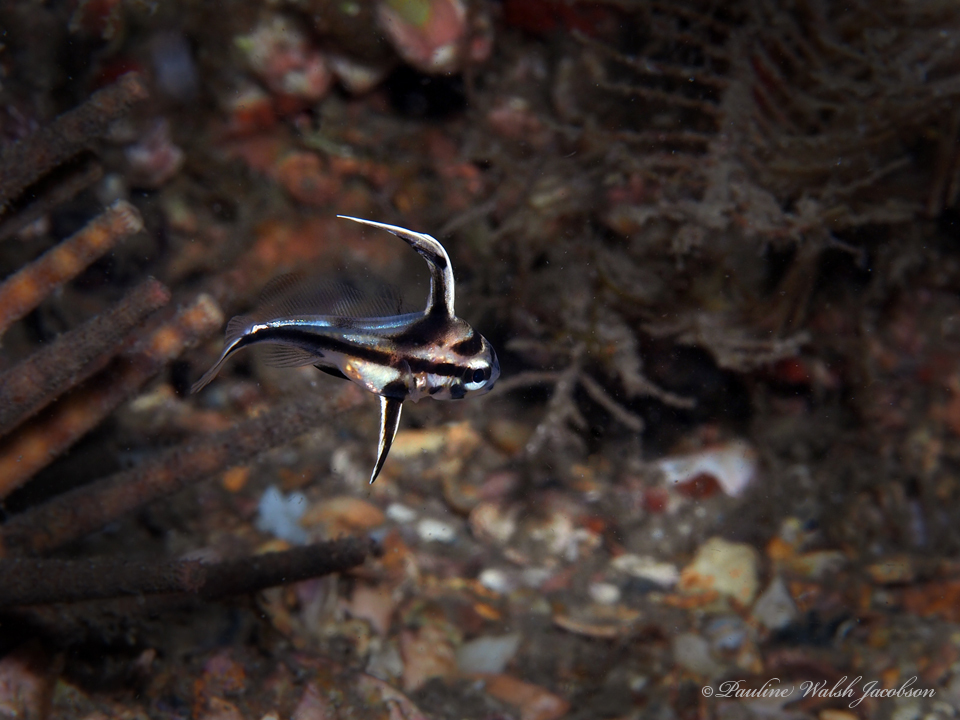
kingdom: Animalia
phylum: Chordata
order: Perciformes
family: Sciaenidae
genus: Pareques
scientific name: Pareques acuminatus
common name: High-hat
